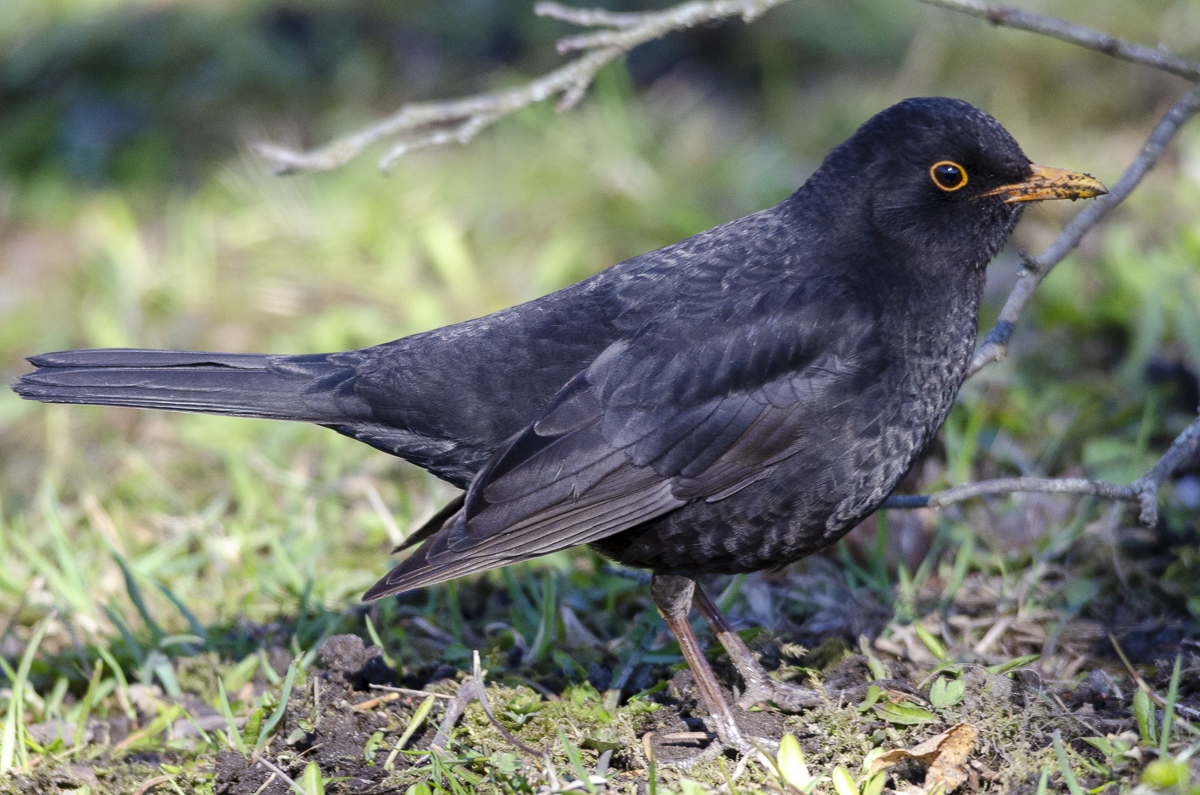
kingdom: Animalia
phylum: Chordata
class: Aves
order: Passeriformes
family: Turdidae
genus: Turdus
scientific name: Turdus merula
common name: Common blackbird
